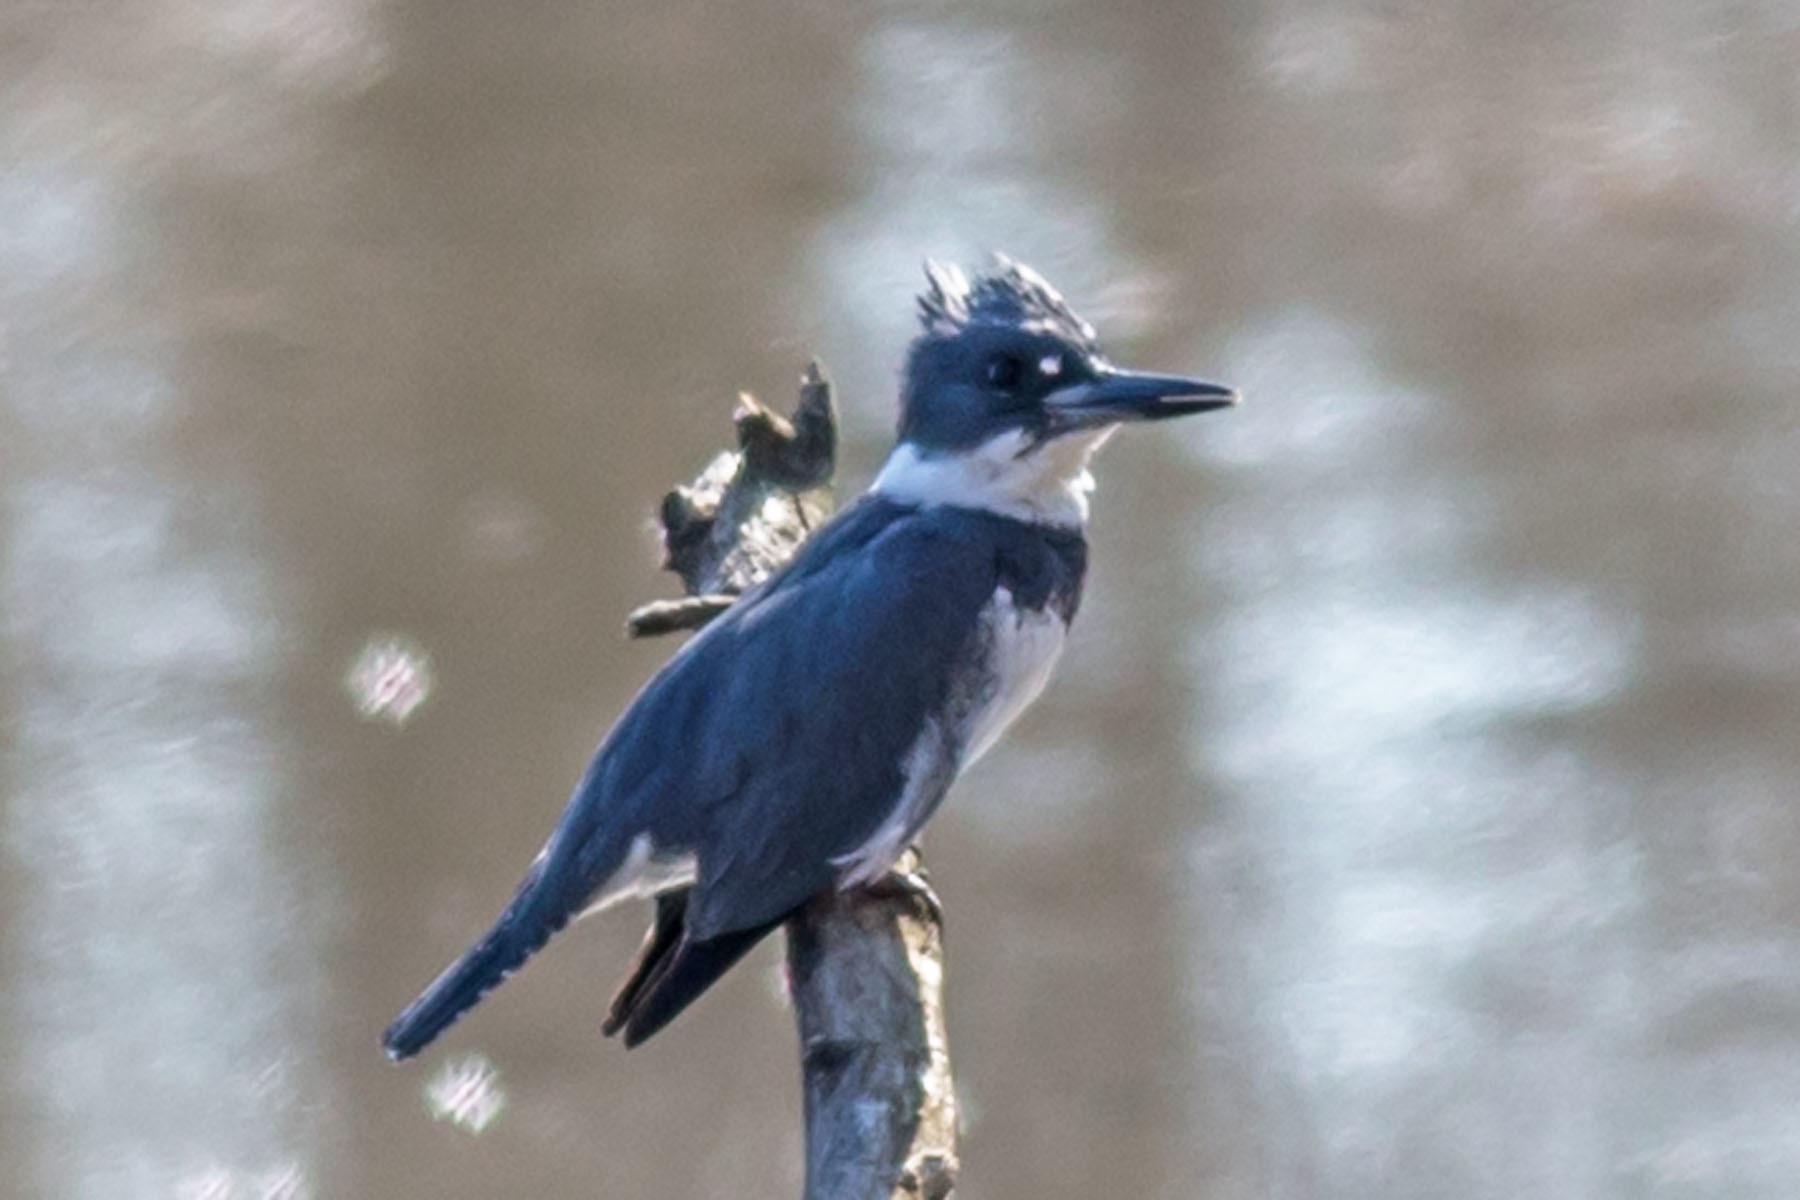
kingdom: Animalia
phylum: Chordata
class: Aves
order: Coraciiformes
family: Alcedinidae
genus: Megaceryle
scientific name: Megaceryle alcyon
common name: Belted kingfisher
